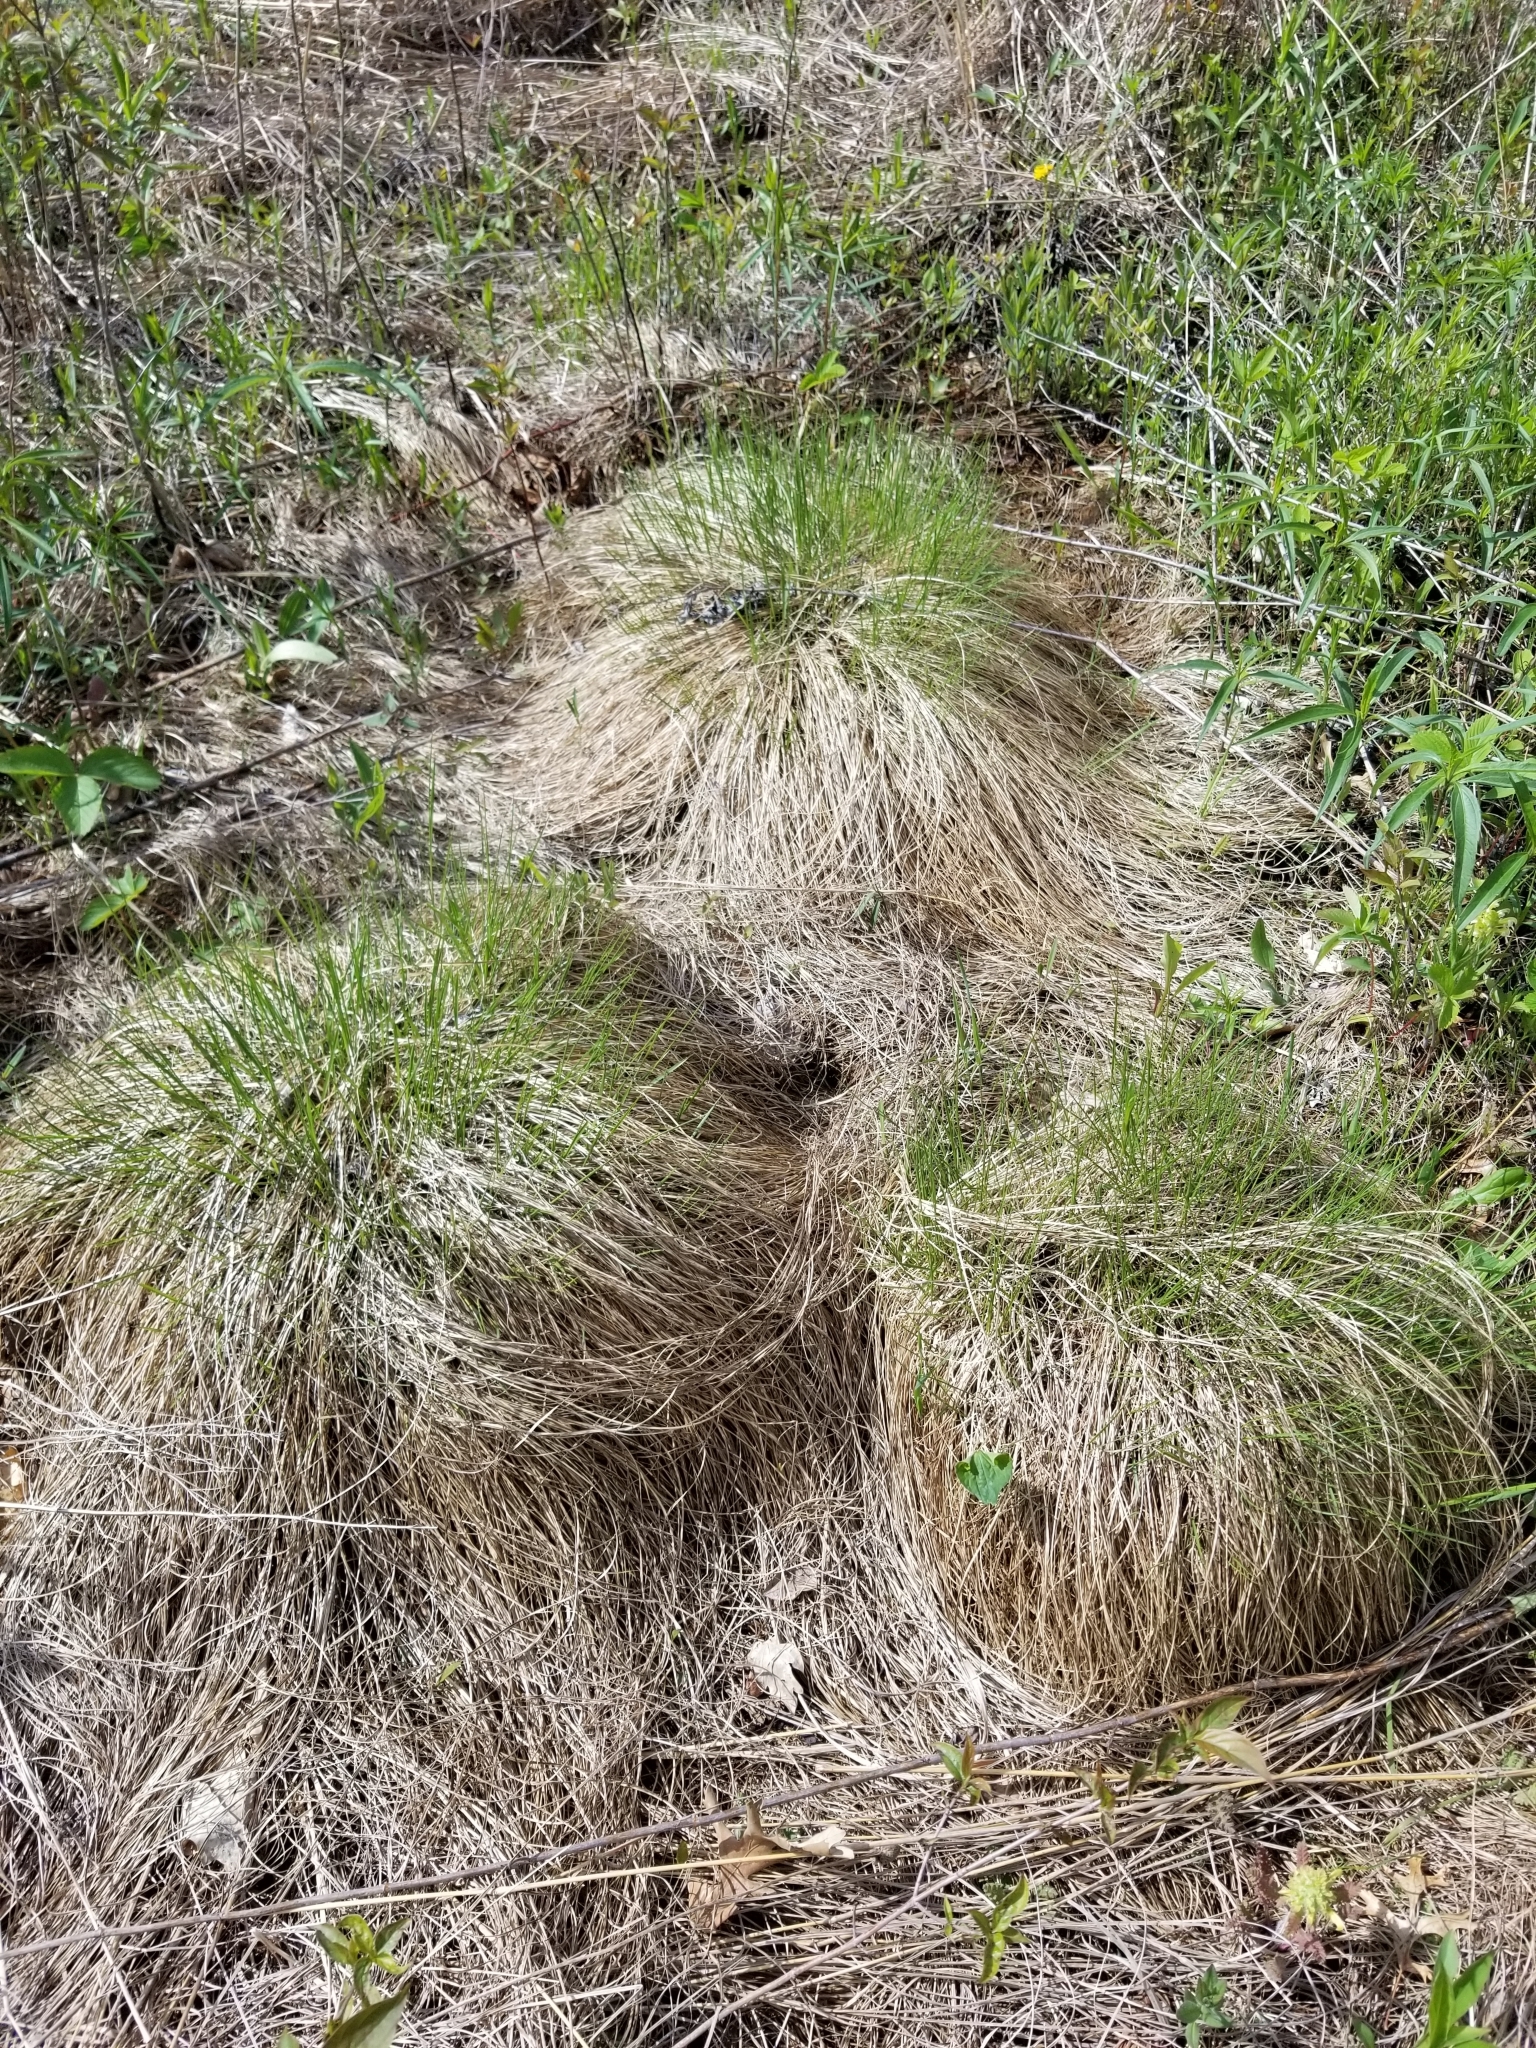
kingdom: Plantae
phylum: Tracheophyta
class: Liliopsida
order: Poales
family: Poaceae
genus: Sporobolus
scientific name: Sporobolus heterolepis
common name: Prairie dropseed
